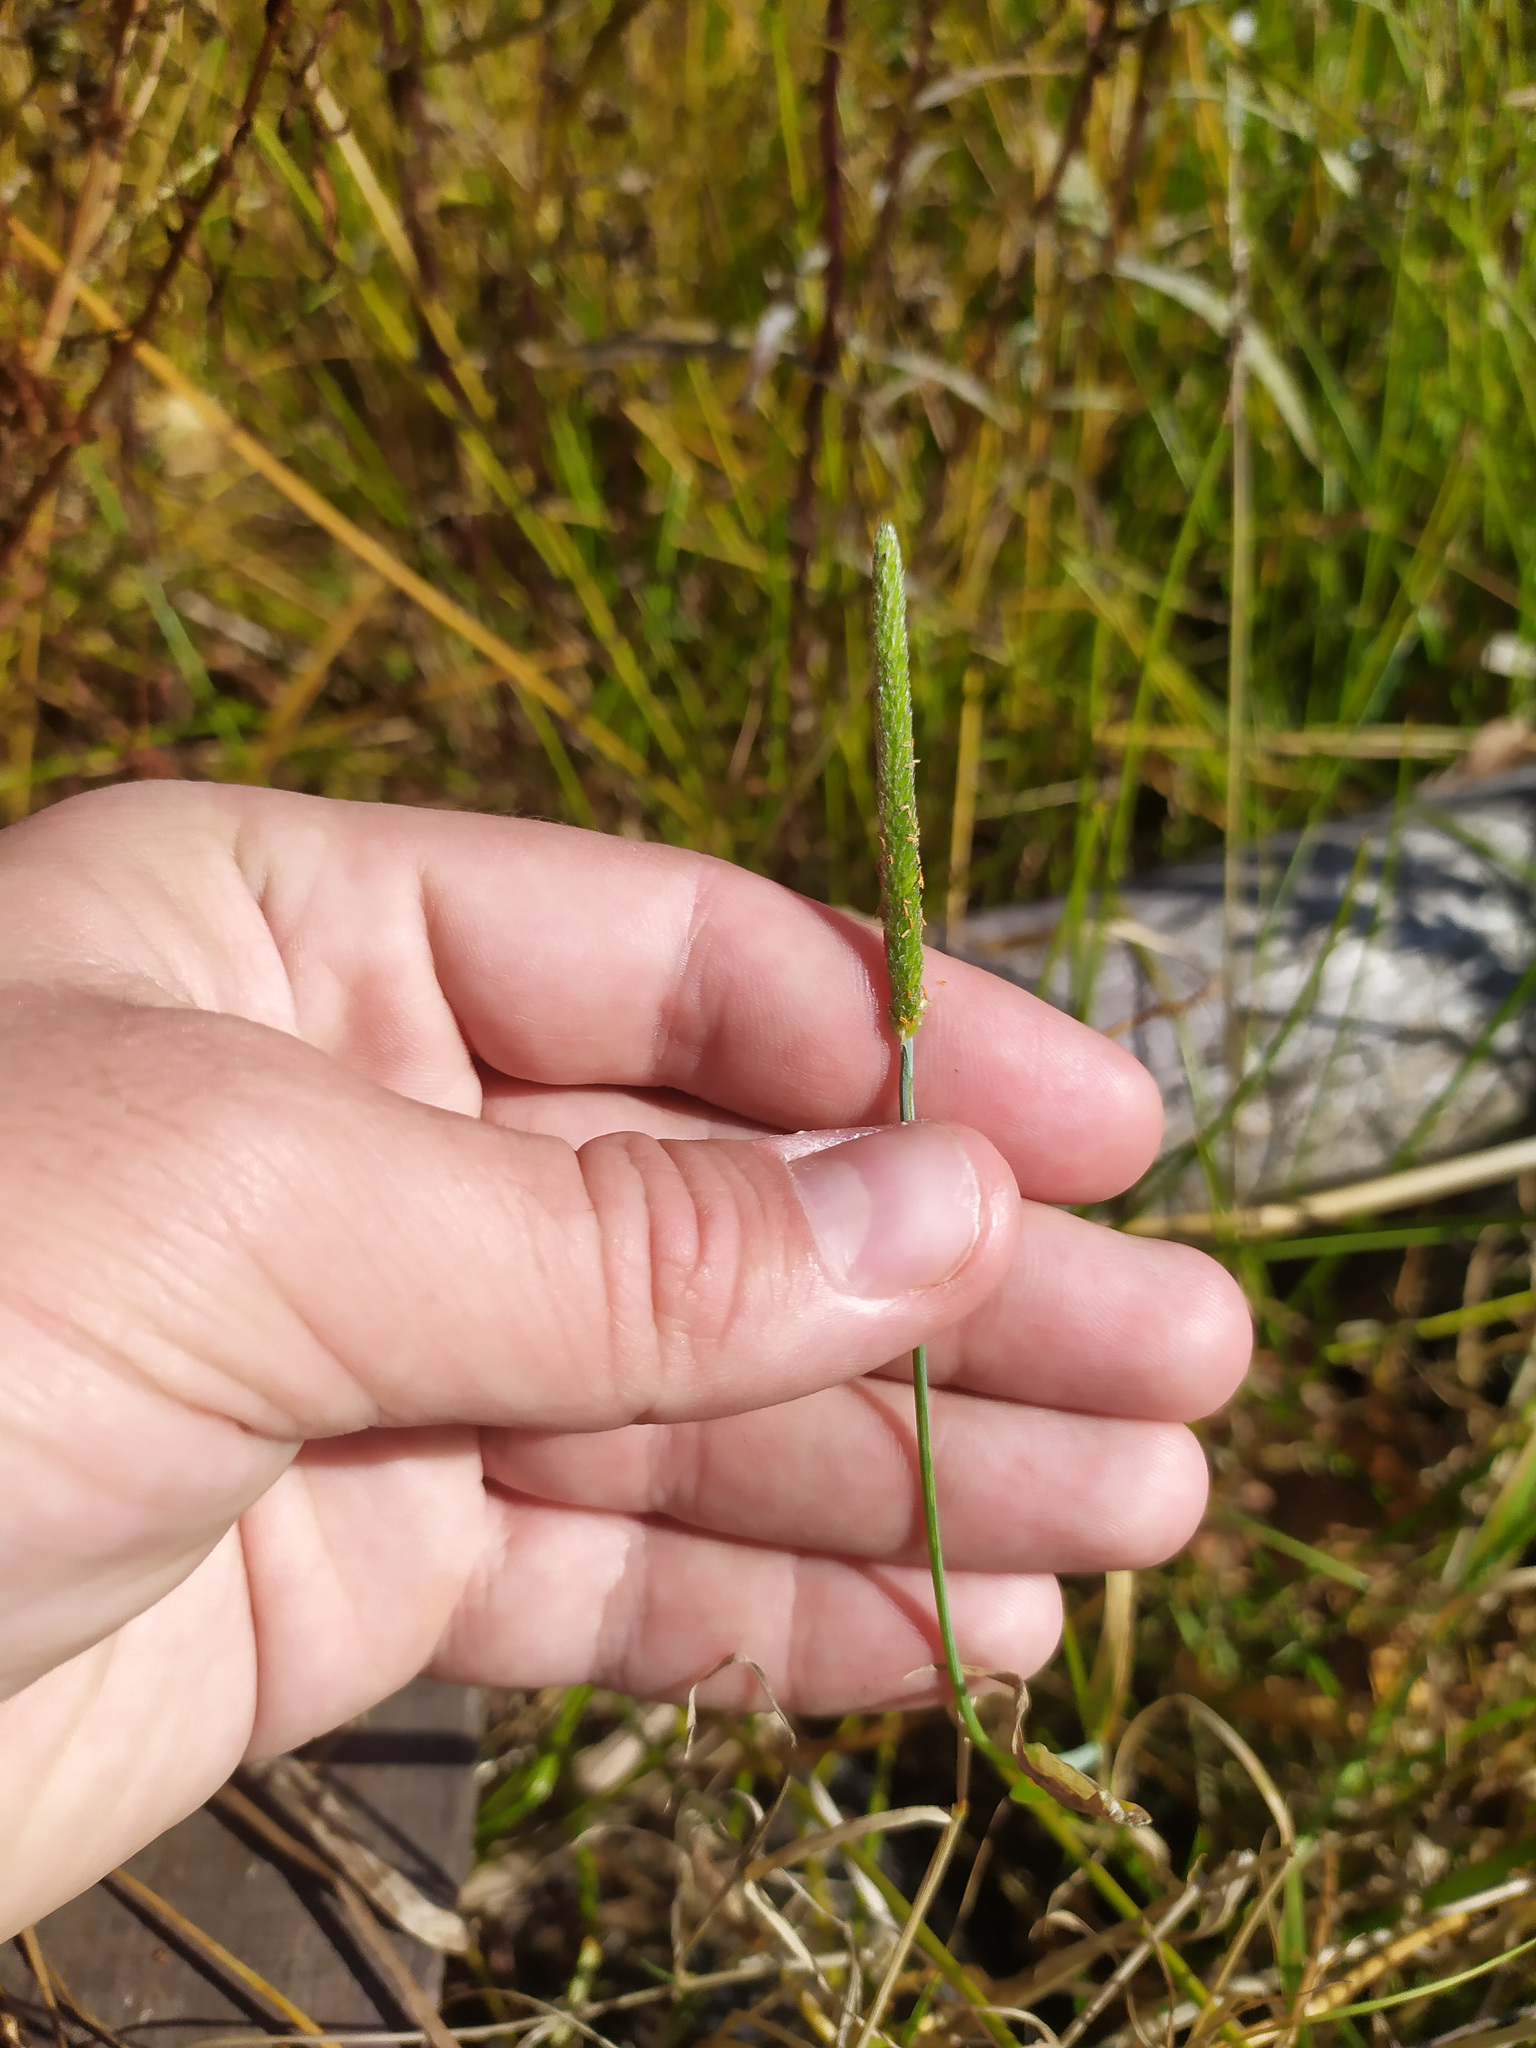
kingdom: Plantae
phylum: Tracheophyta
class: Liliopsida
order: Poales
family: Poaceae
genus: Alopecurus
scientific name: Alopecurus aequalis
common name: Orange foxtail
